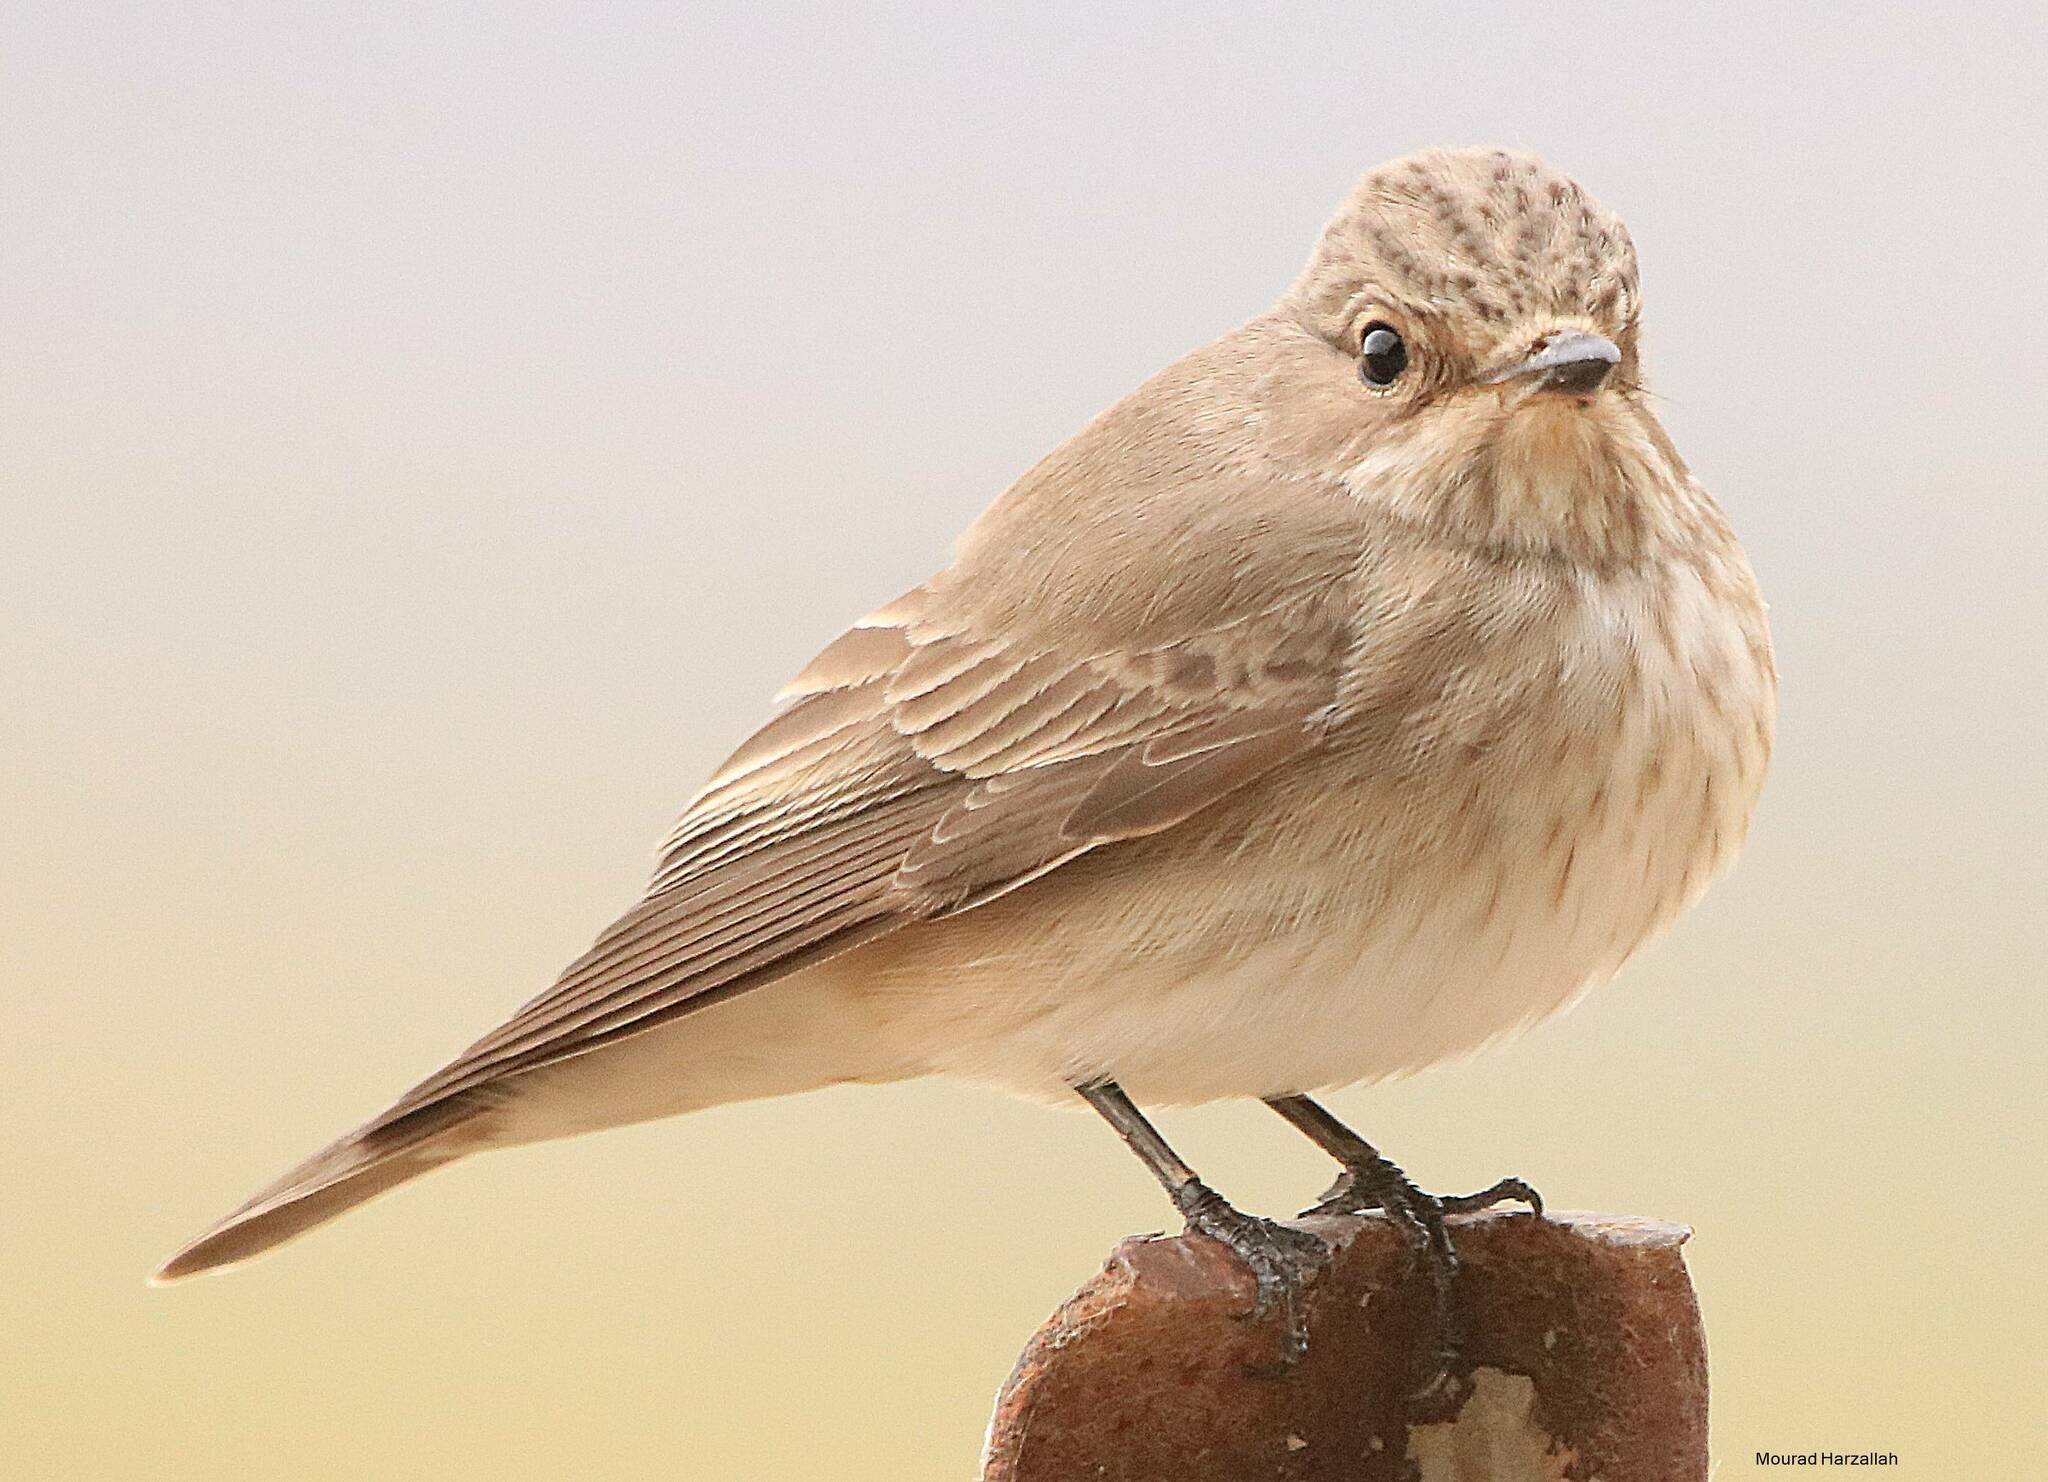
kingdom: Animalia
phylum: Chordata
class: Aves
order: Passeriformes
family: Muscicapidae
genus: Muscicapa
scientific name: Muscicapa striata
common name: Spotted flycatcher
